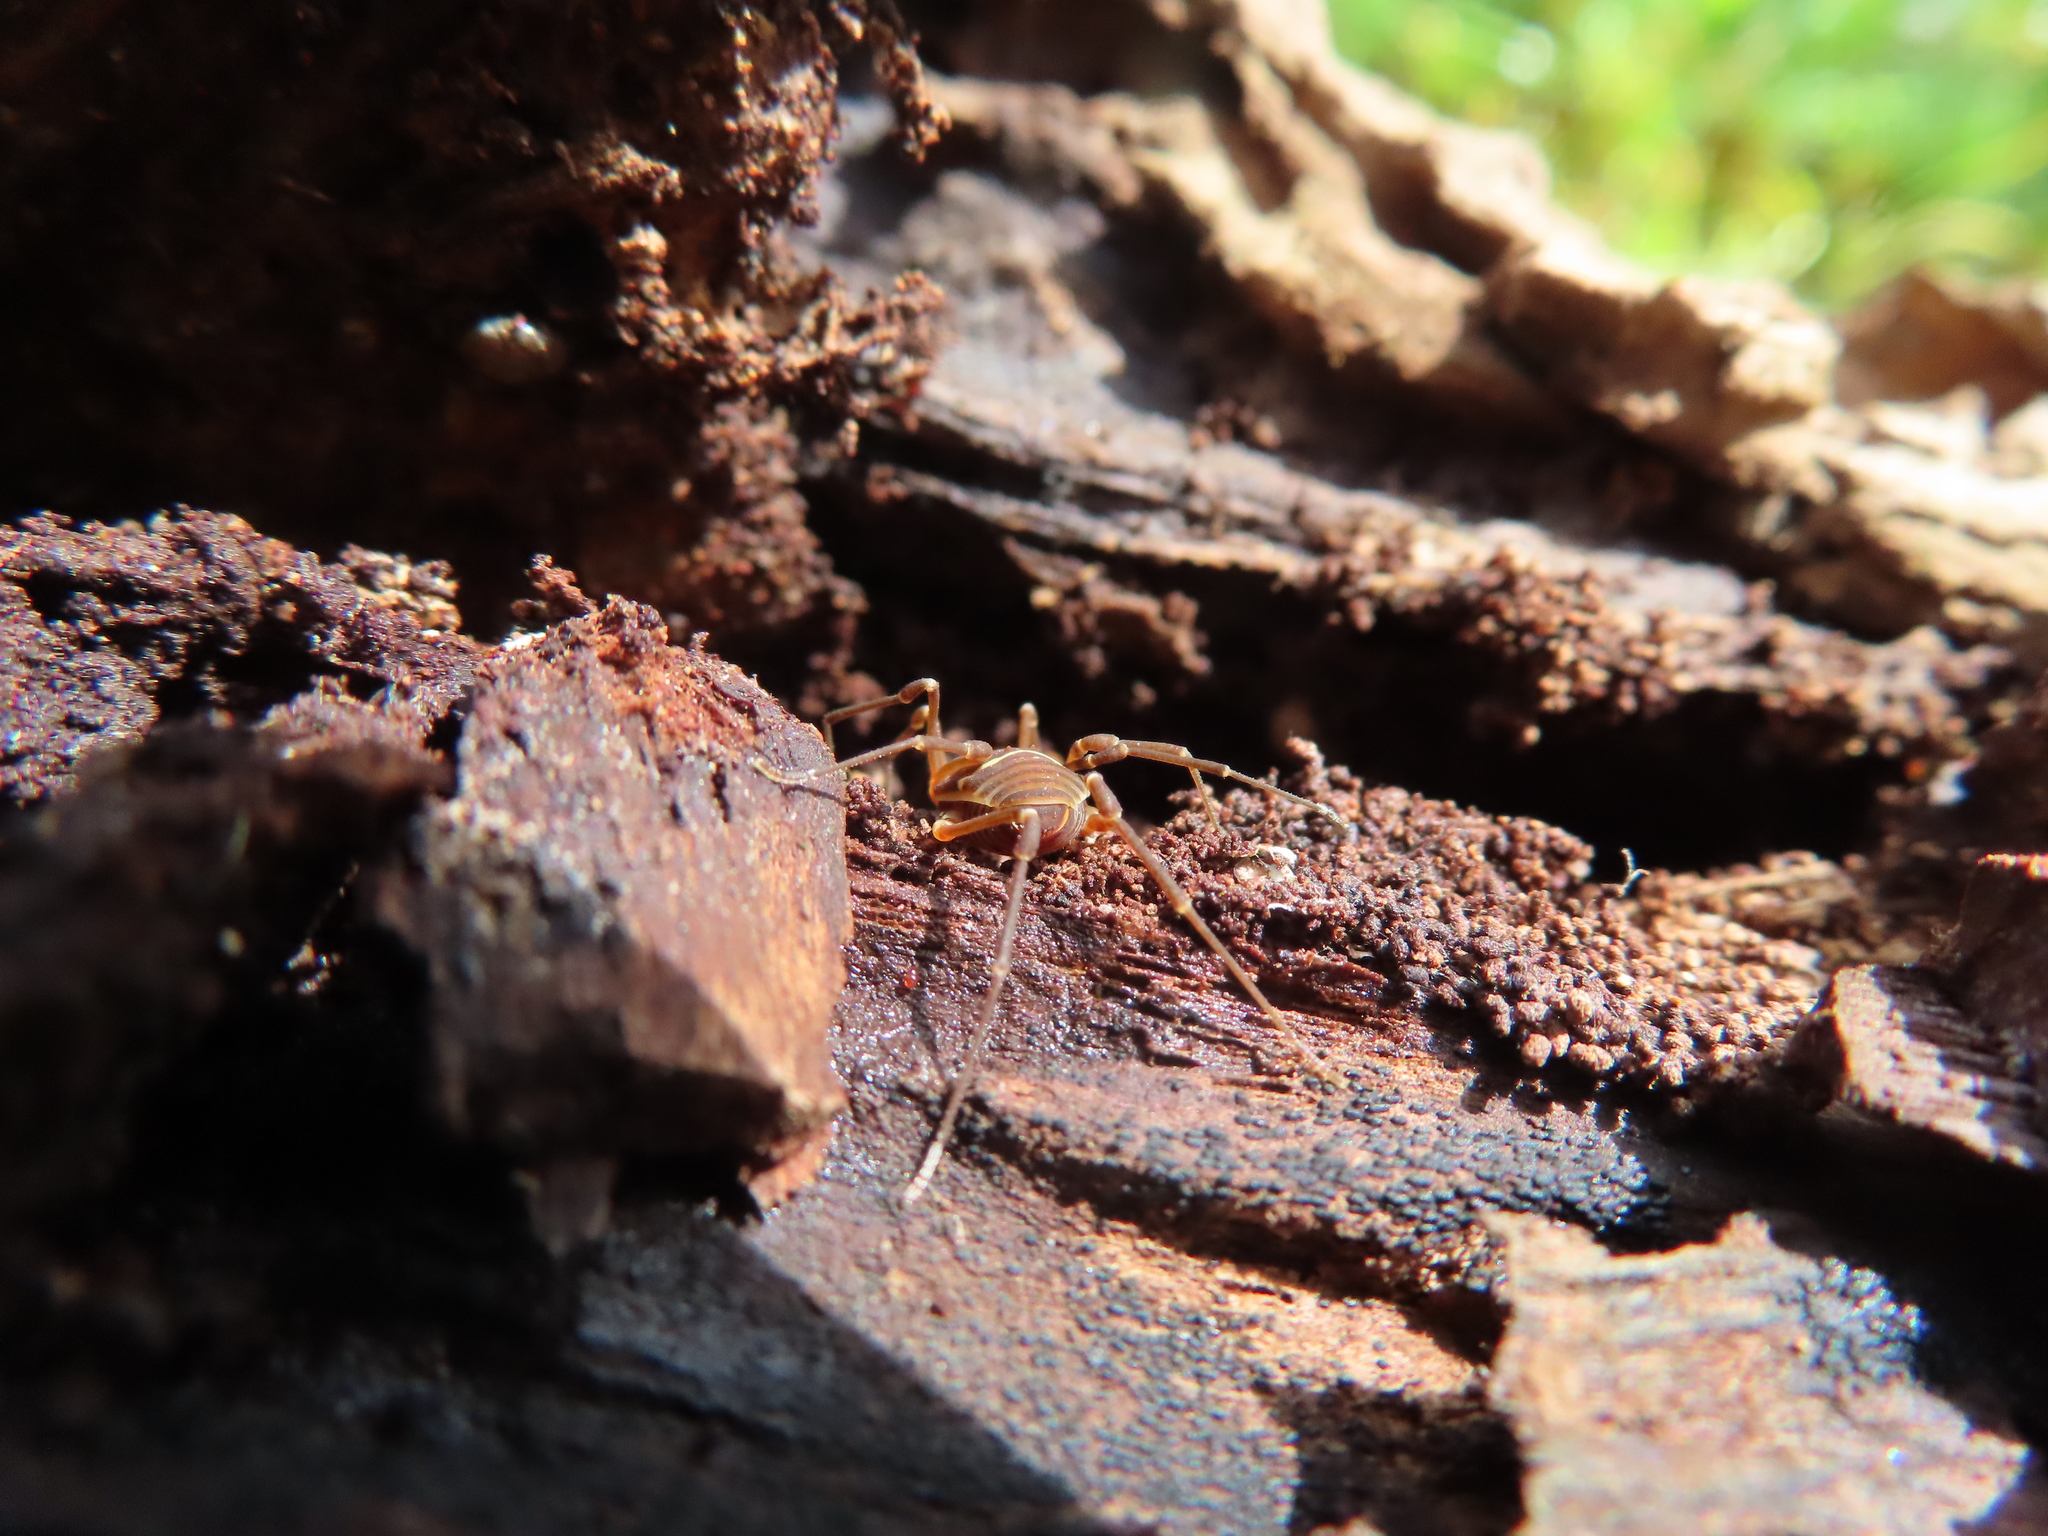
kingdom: Animalia
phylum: Arthropoda
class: Arachnida
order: Opiliones
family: Cosmetidae
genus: Libitioides
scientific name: Libitioides sayi
